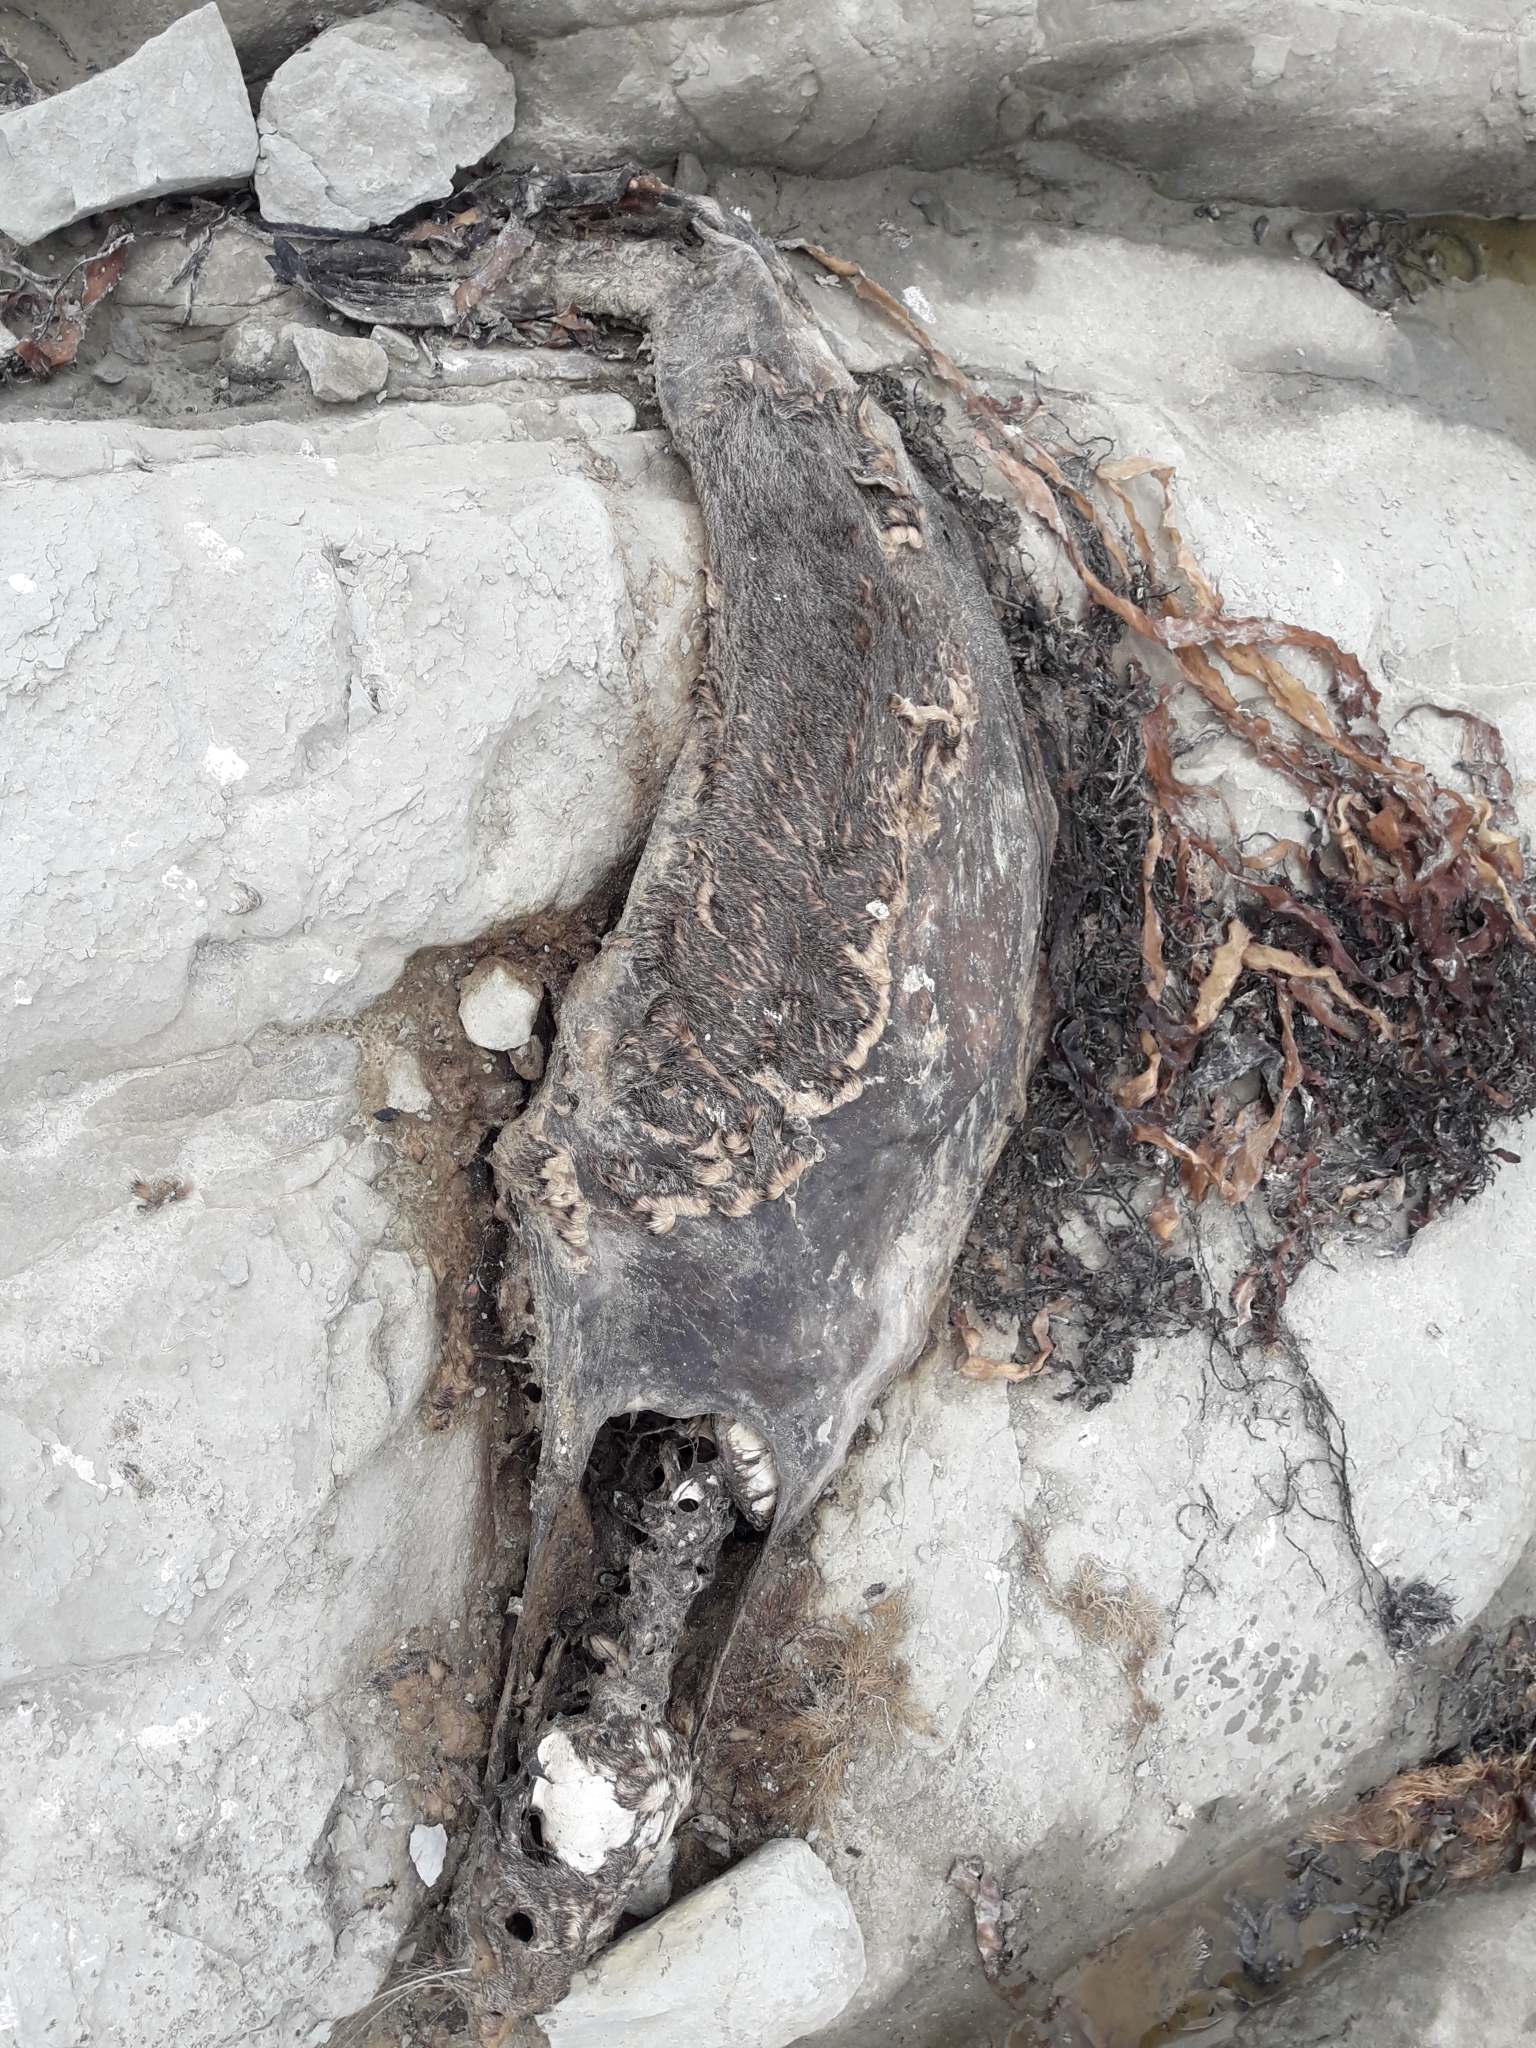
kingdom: Animalia
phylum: Chordata
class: Mammalia
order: Carnivora
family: Otariidae
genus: Arctocephalus
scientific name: Arctocephalus forsteri
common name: New zealand fur seal
